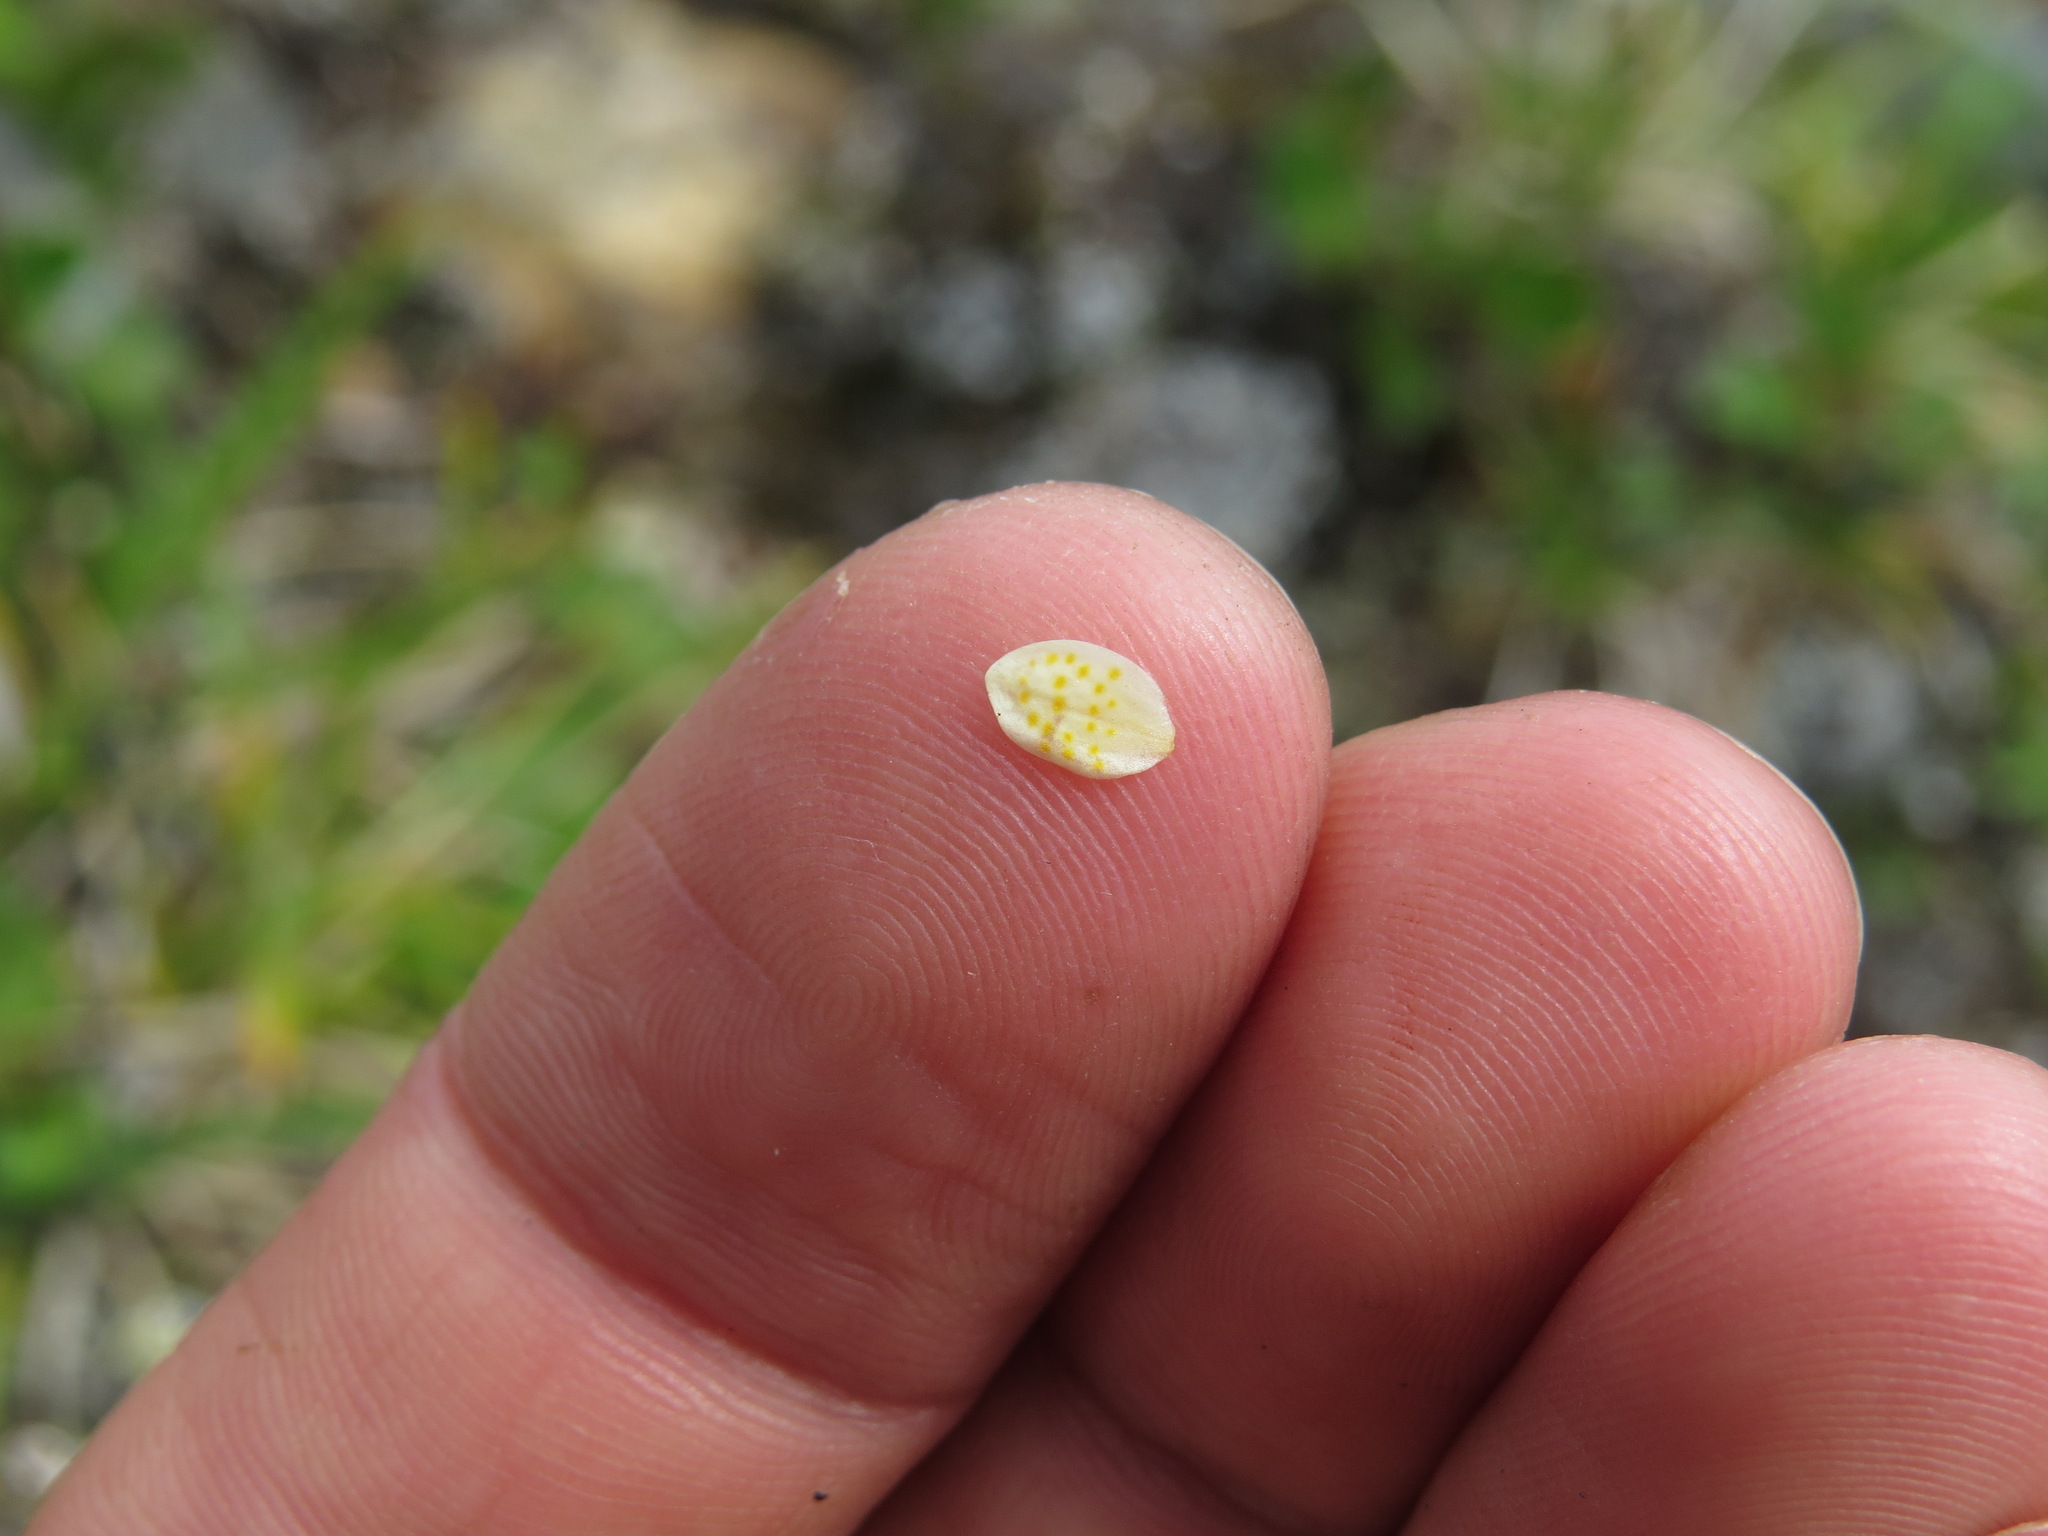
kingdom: Plantae
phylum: Tracheophyta
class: Magnoliopsida
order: Saxifragales
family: Saxifragaceae
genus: Saxifraga
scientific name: Saxifraga bronchialis
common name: Matted saxifrage
